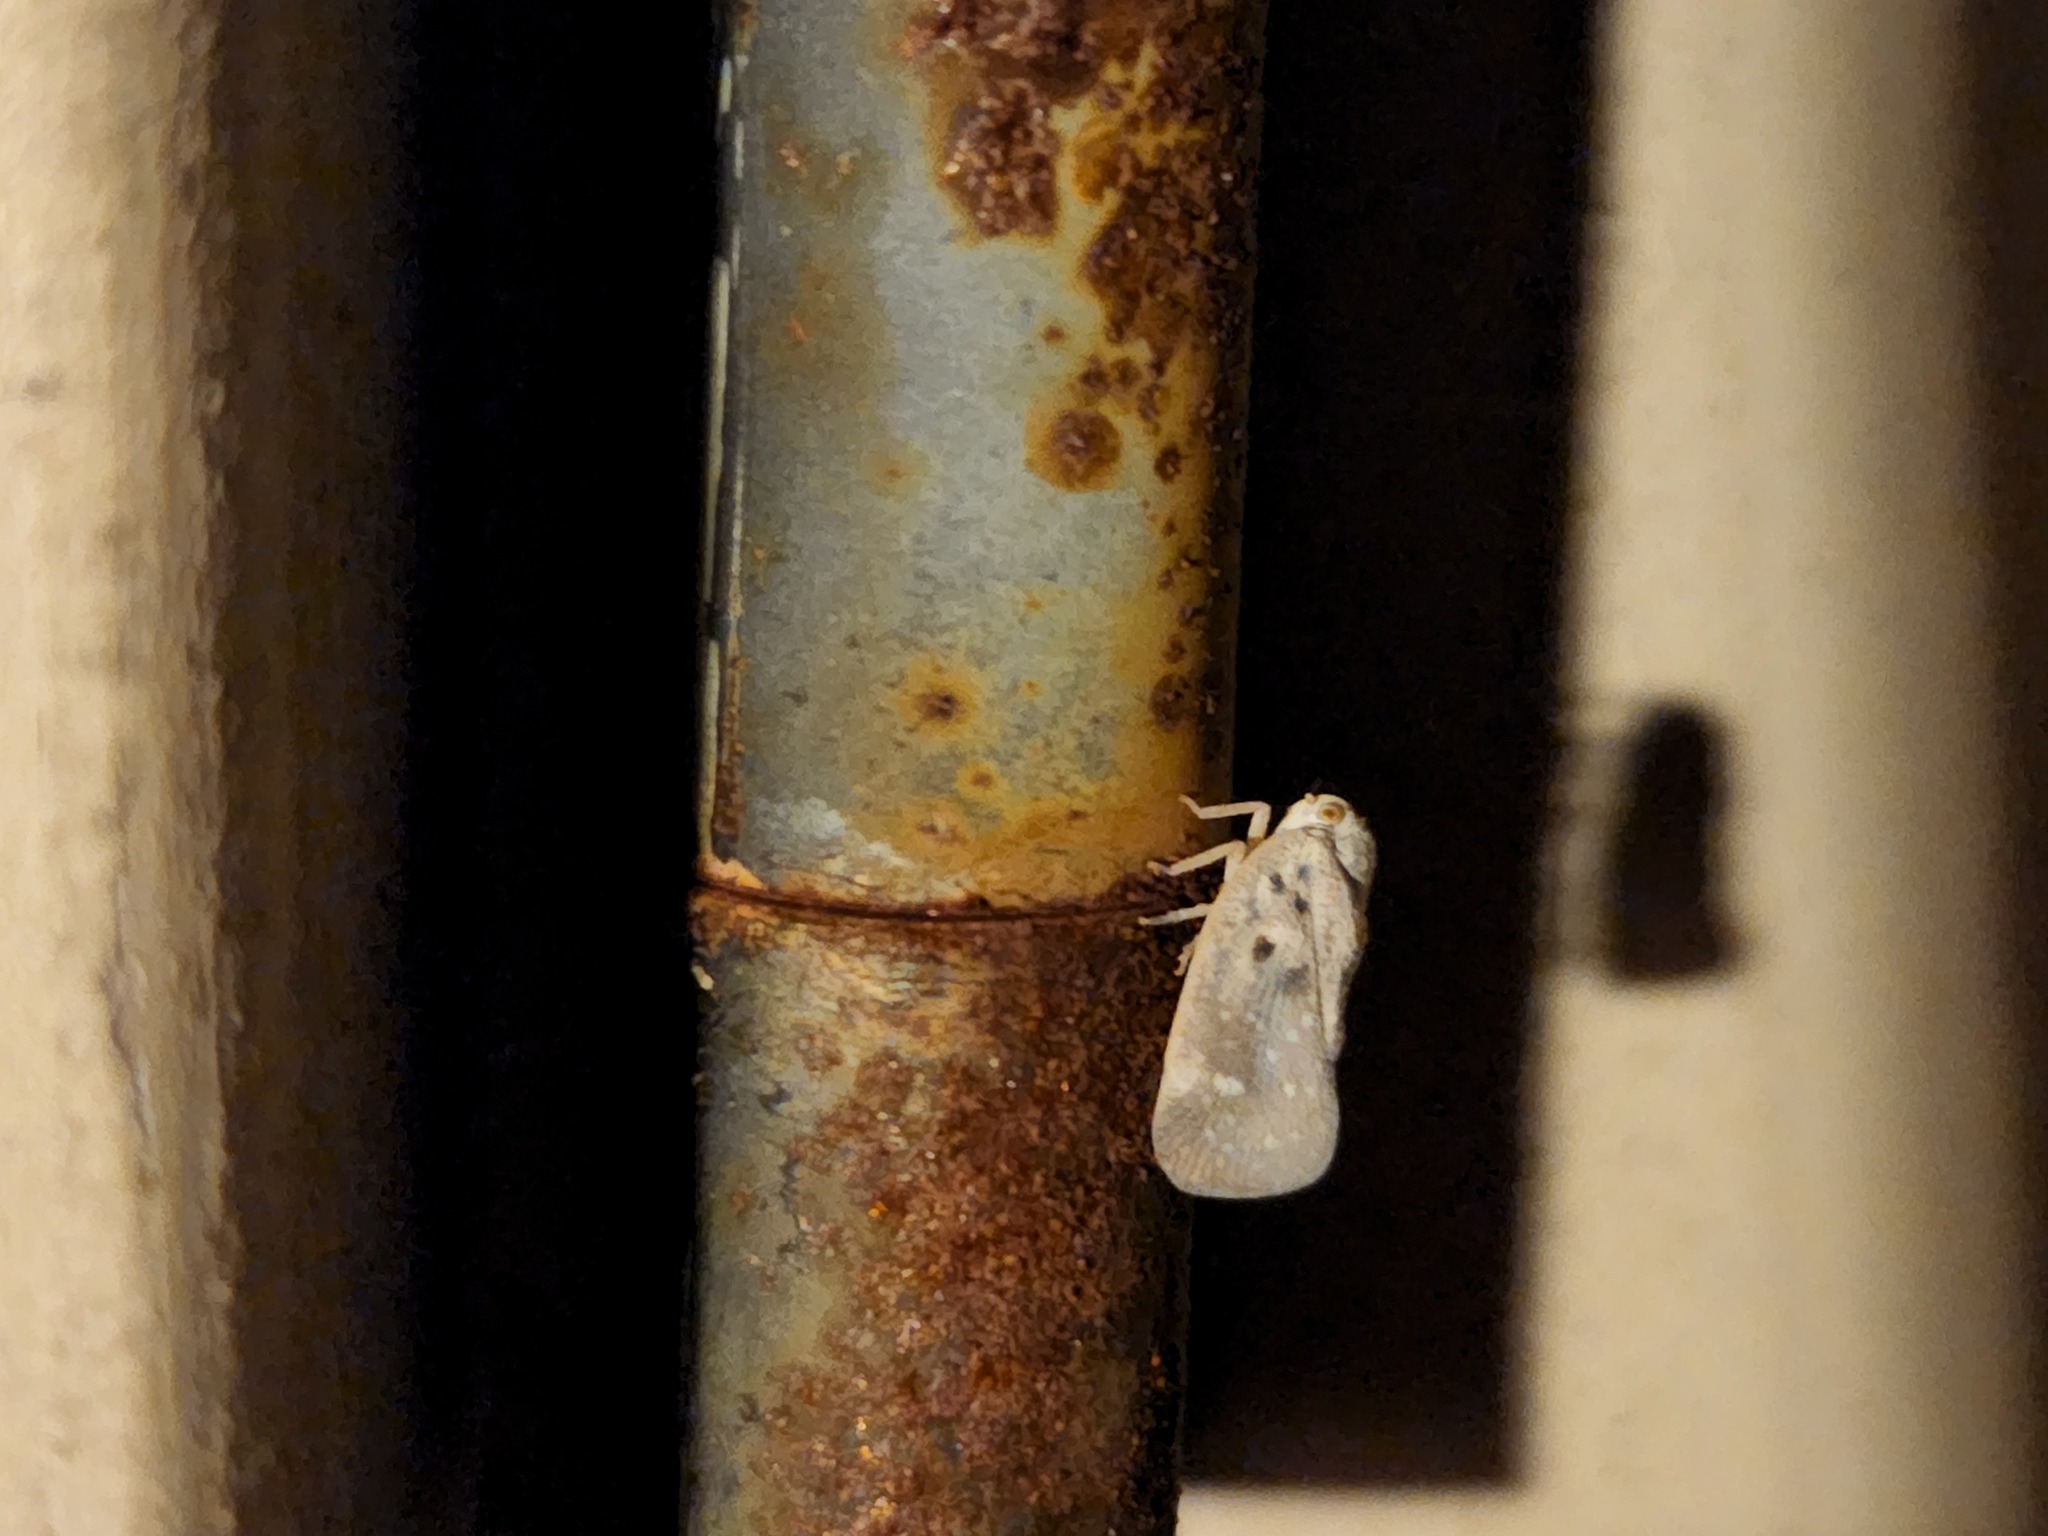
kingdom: Animalia
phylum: Arthropoda
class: Insecta
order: Hemiptera
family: Flatidae
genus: Metcalfa
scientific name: Metcalfa pruinosa
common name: Citrus flatid planthopper
